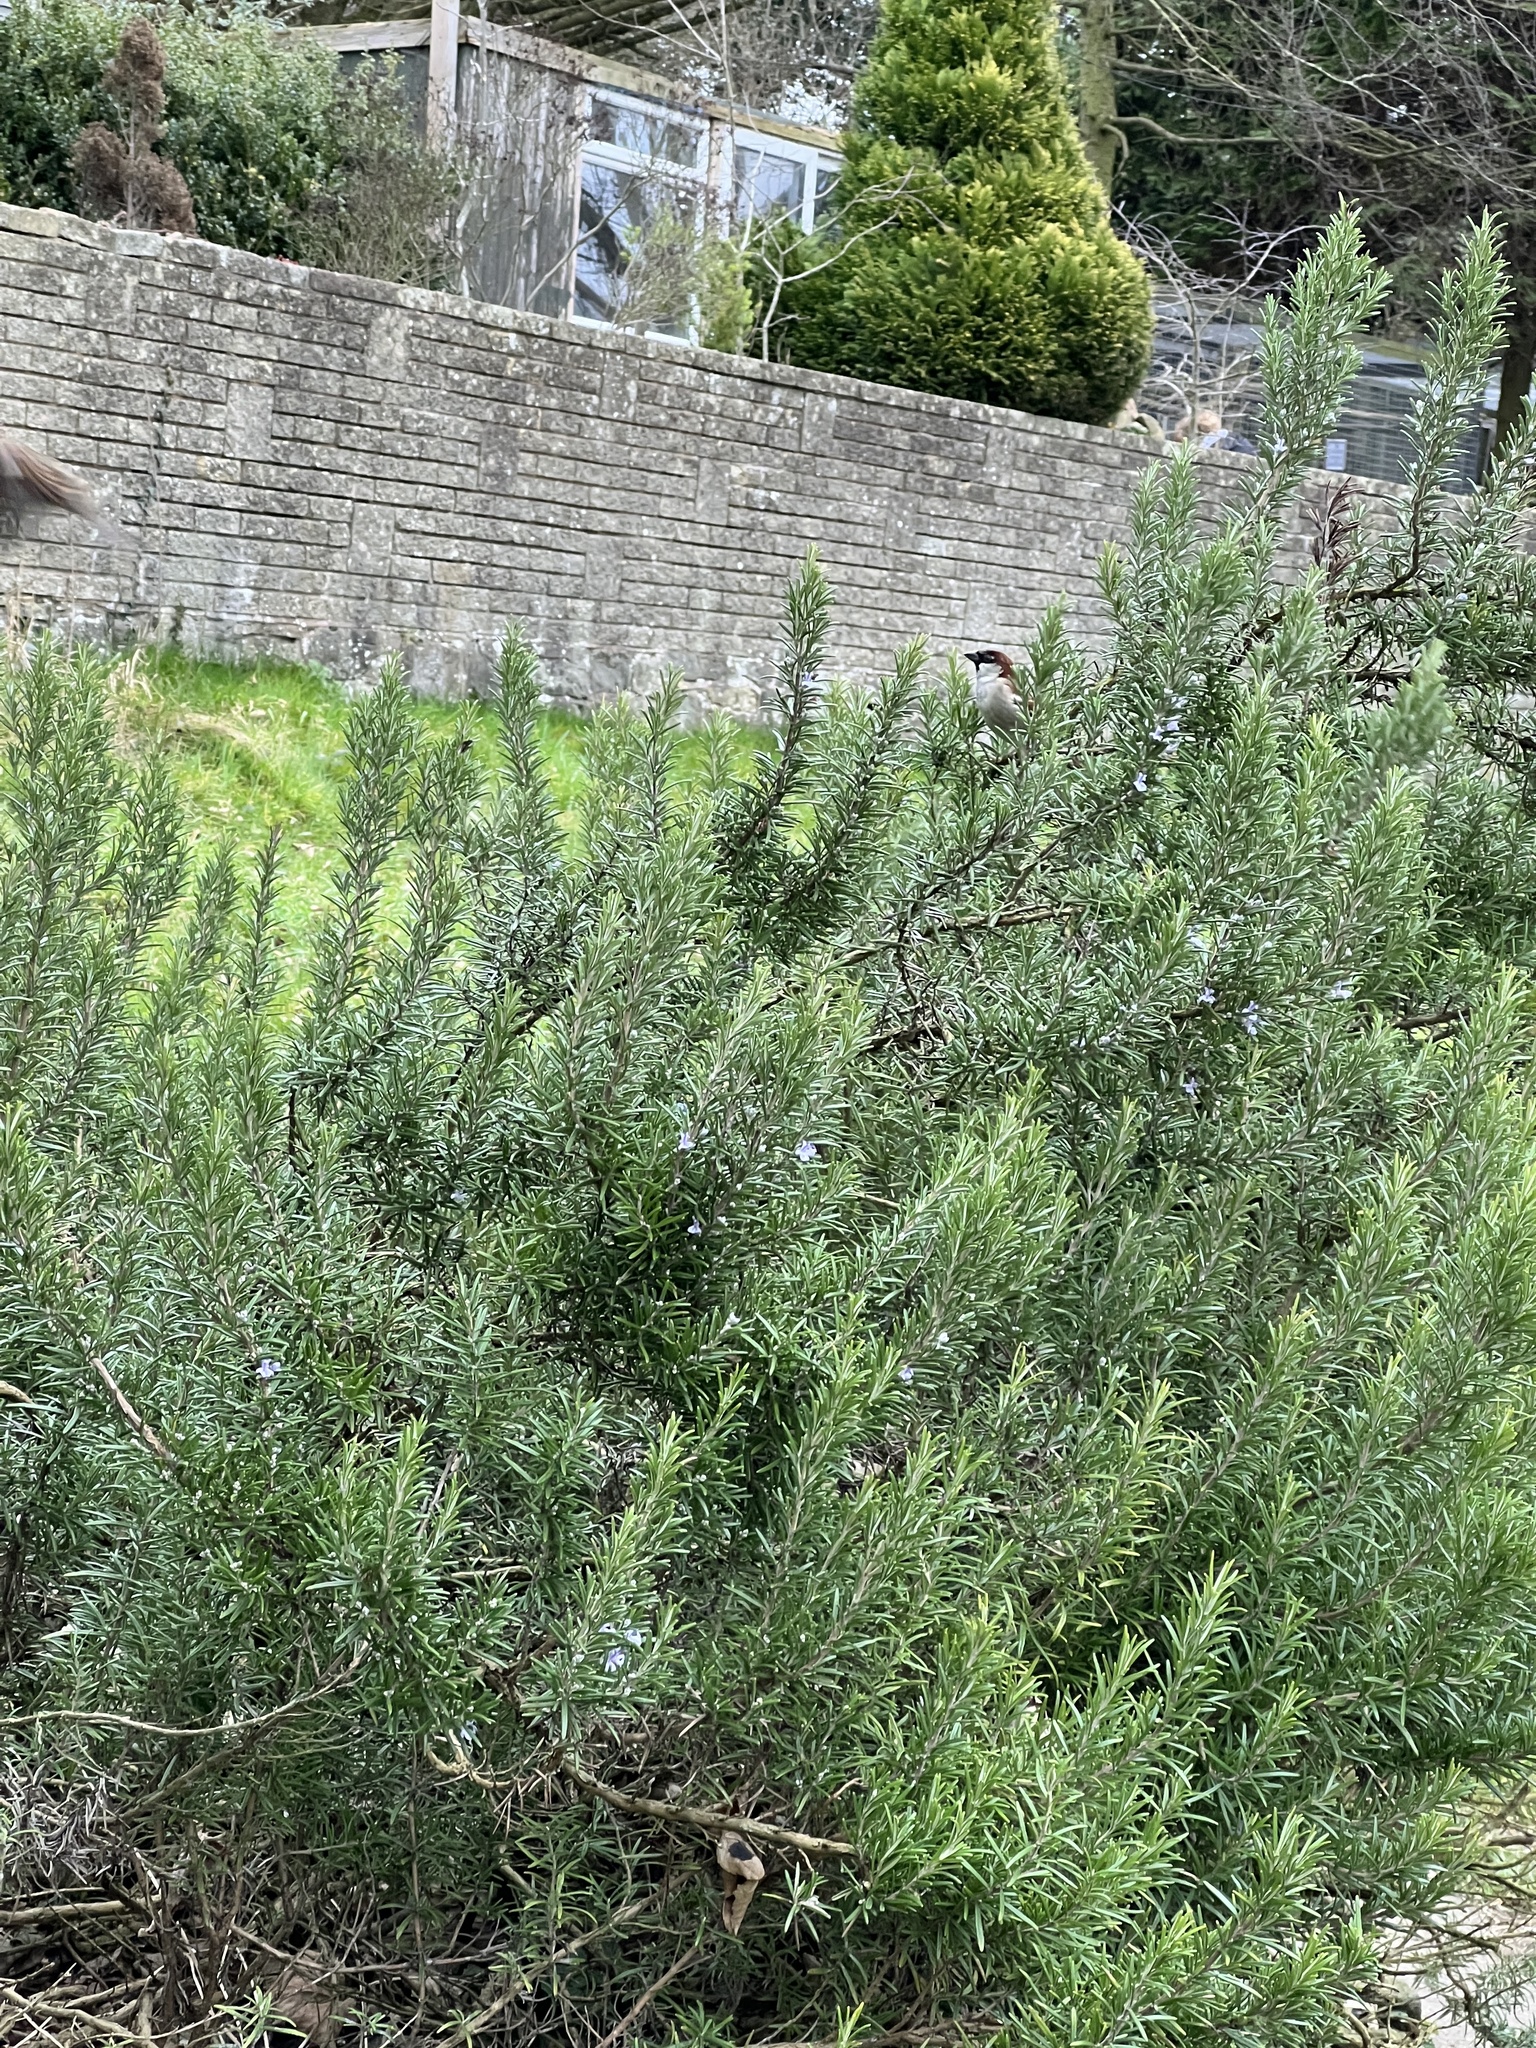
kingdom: Animalia
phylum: Chordata
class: Aves
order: Passeriformes
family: Passeridae
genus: Passer
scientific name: Passer domesticus
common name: House sparrow
